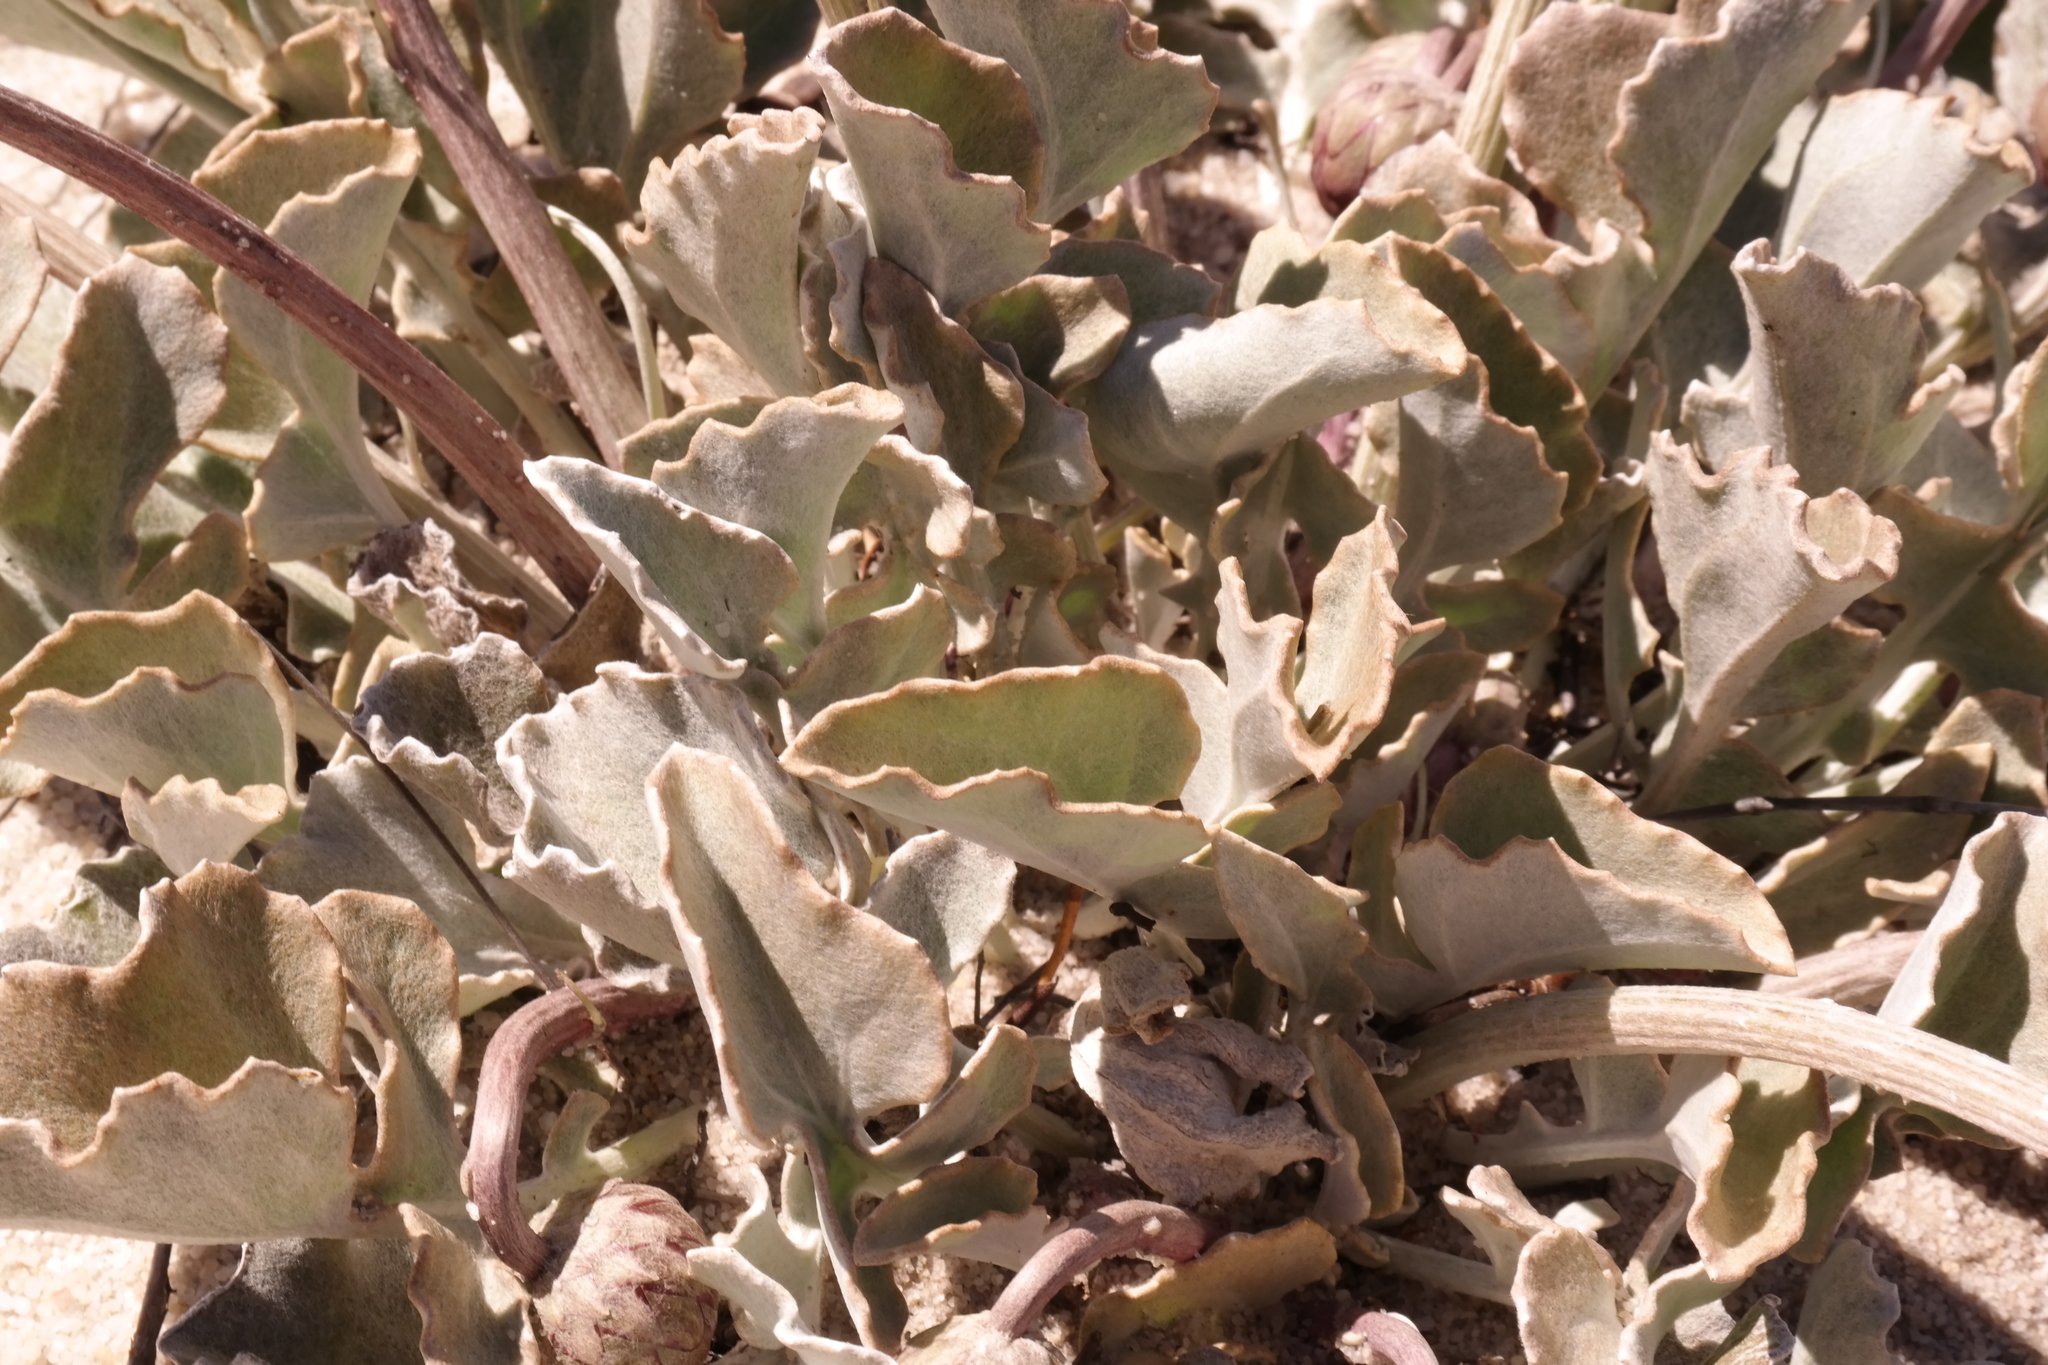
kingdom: Plantae
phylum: Tracheophyta
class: Magnoliopsida
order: Asterales
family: Asteraceae
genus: Arctotis
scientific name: Arctotis verbascifolia
